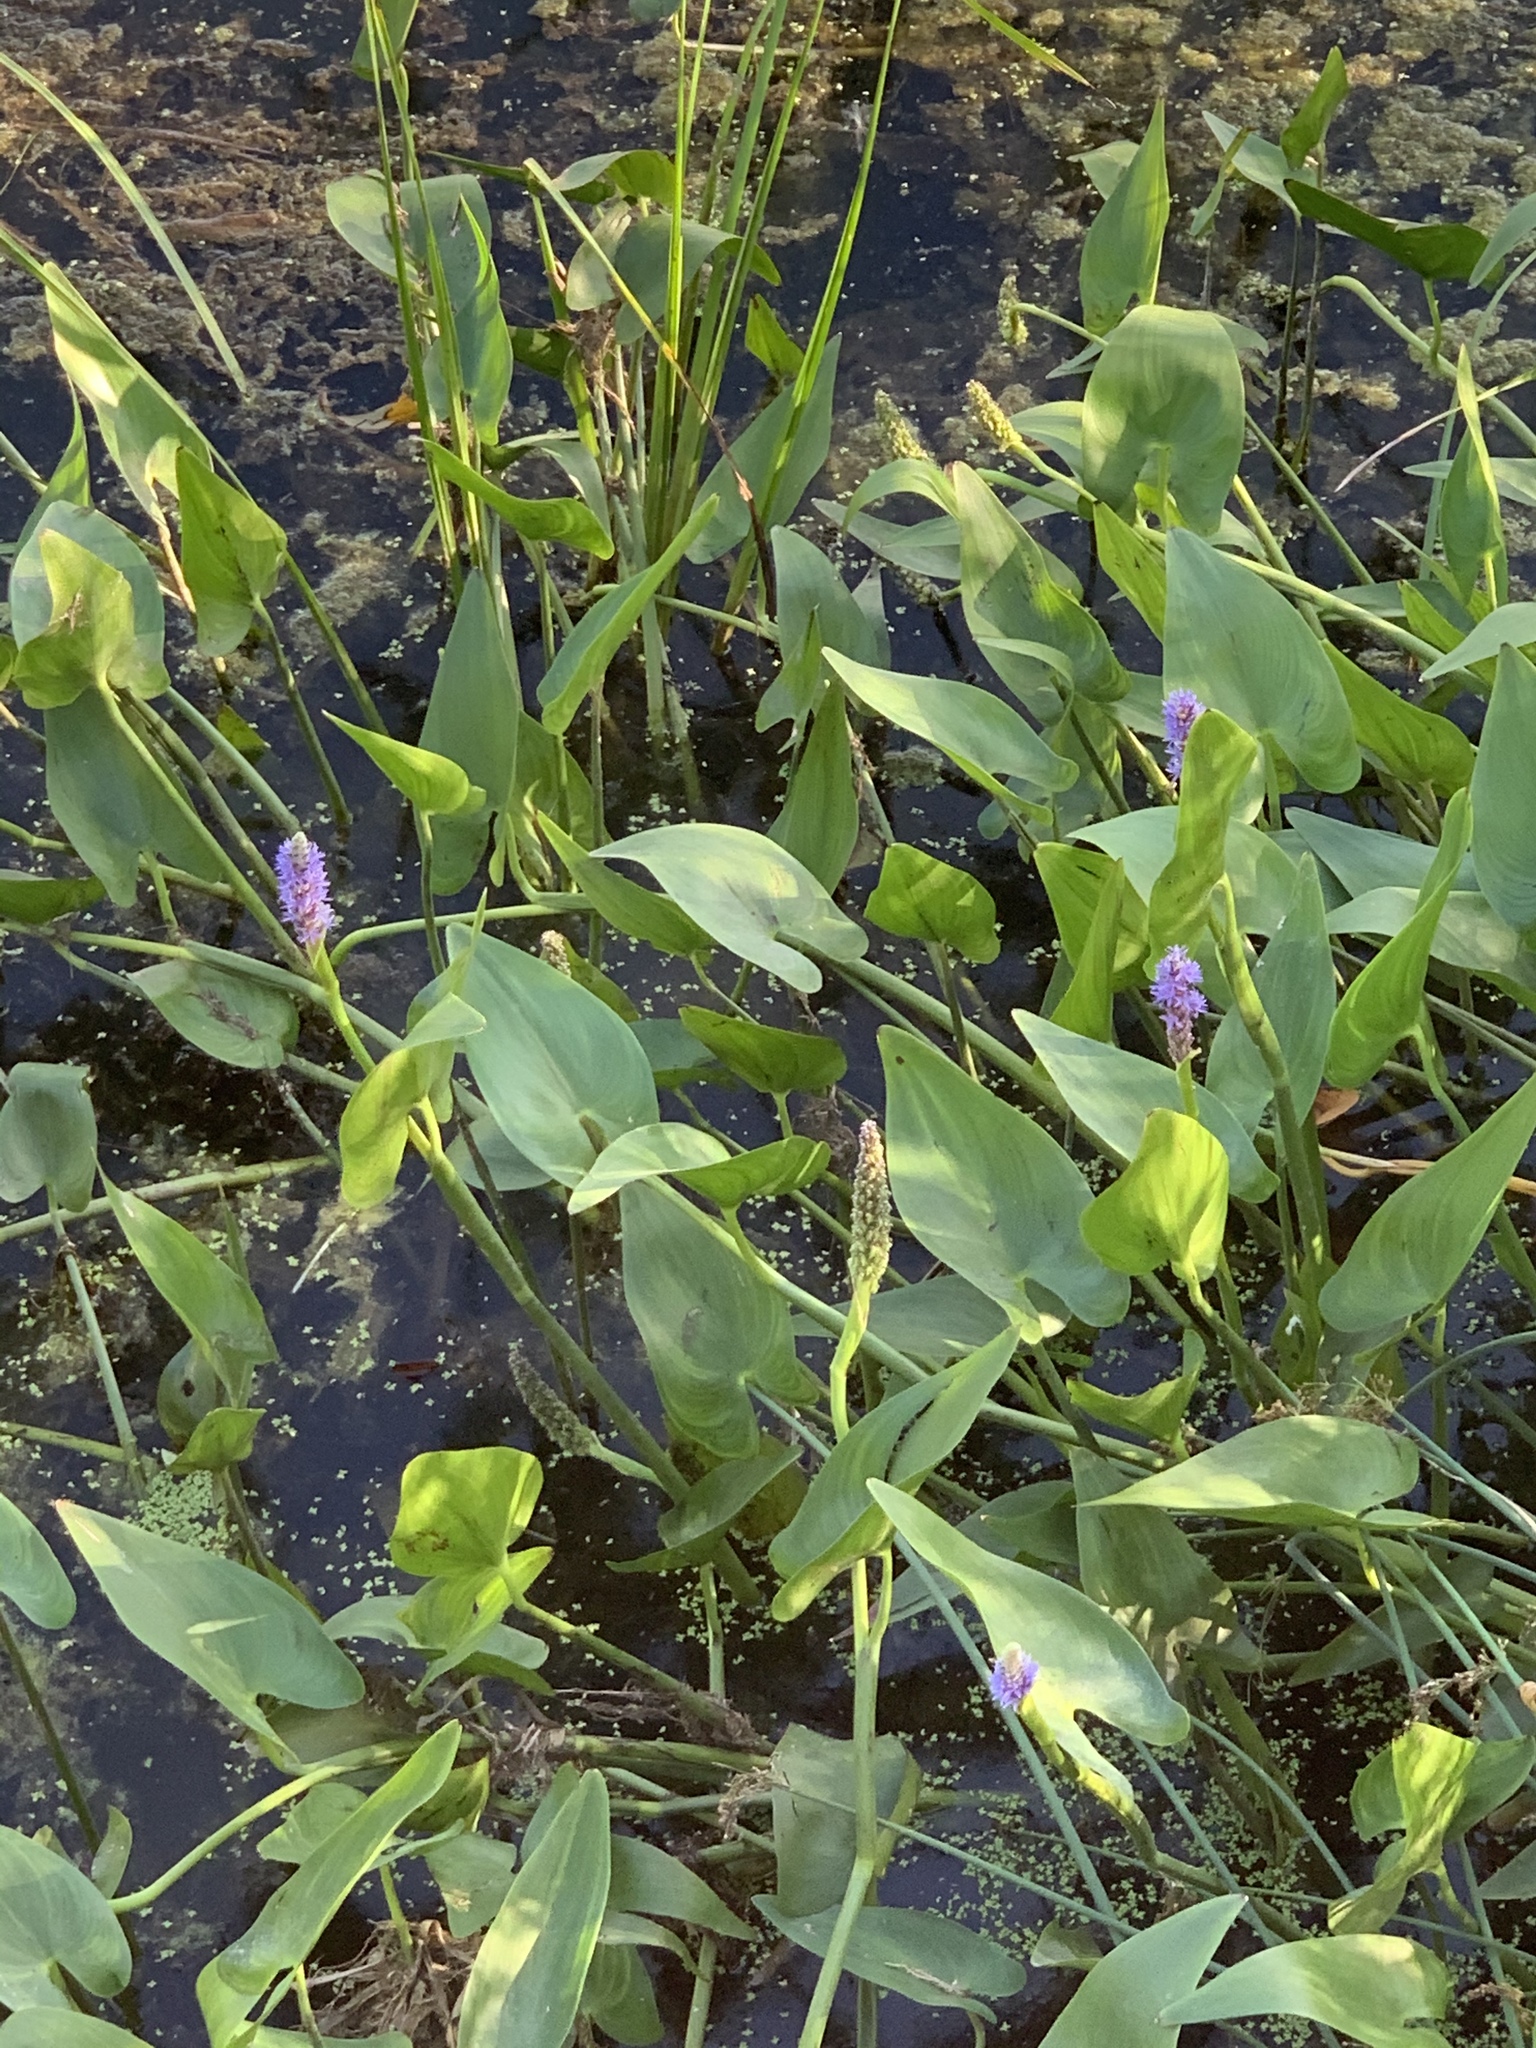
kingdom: Plantae
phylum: Tracheophyta
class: Liliopsida
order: Commelinales
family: Pontederiaceae
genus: Pontederia
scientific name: Pontederia cordata
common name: Pickerelweed
